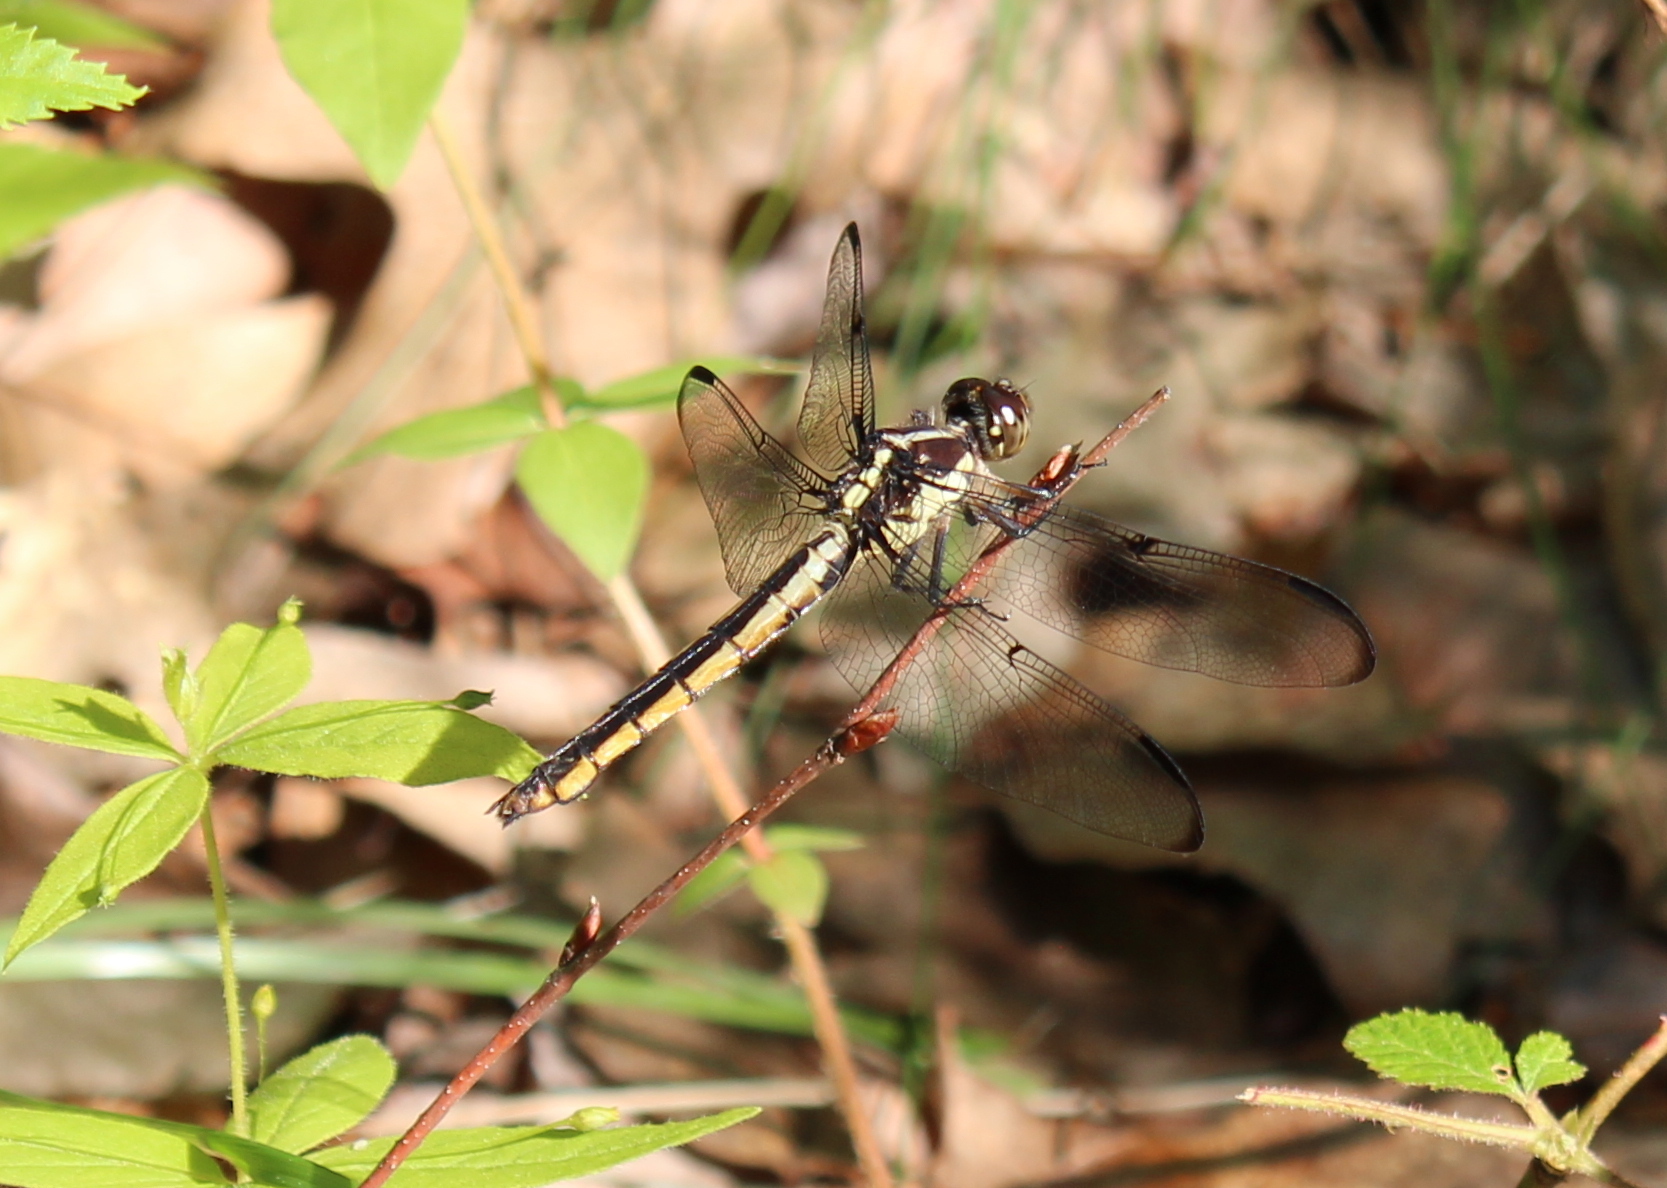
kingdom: Animalia
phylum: Arthropoda
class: Insecta
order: Odonata
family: Libellulidae
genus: Libellula
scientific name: Libellula incesta
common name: Slaty skimmer
